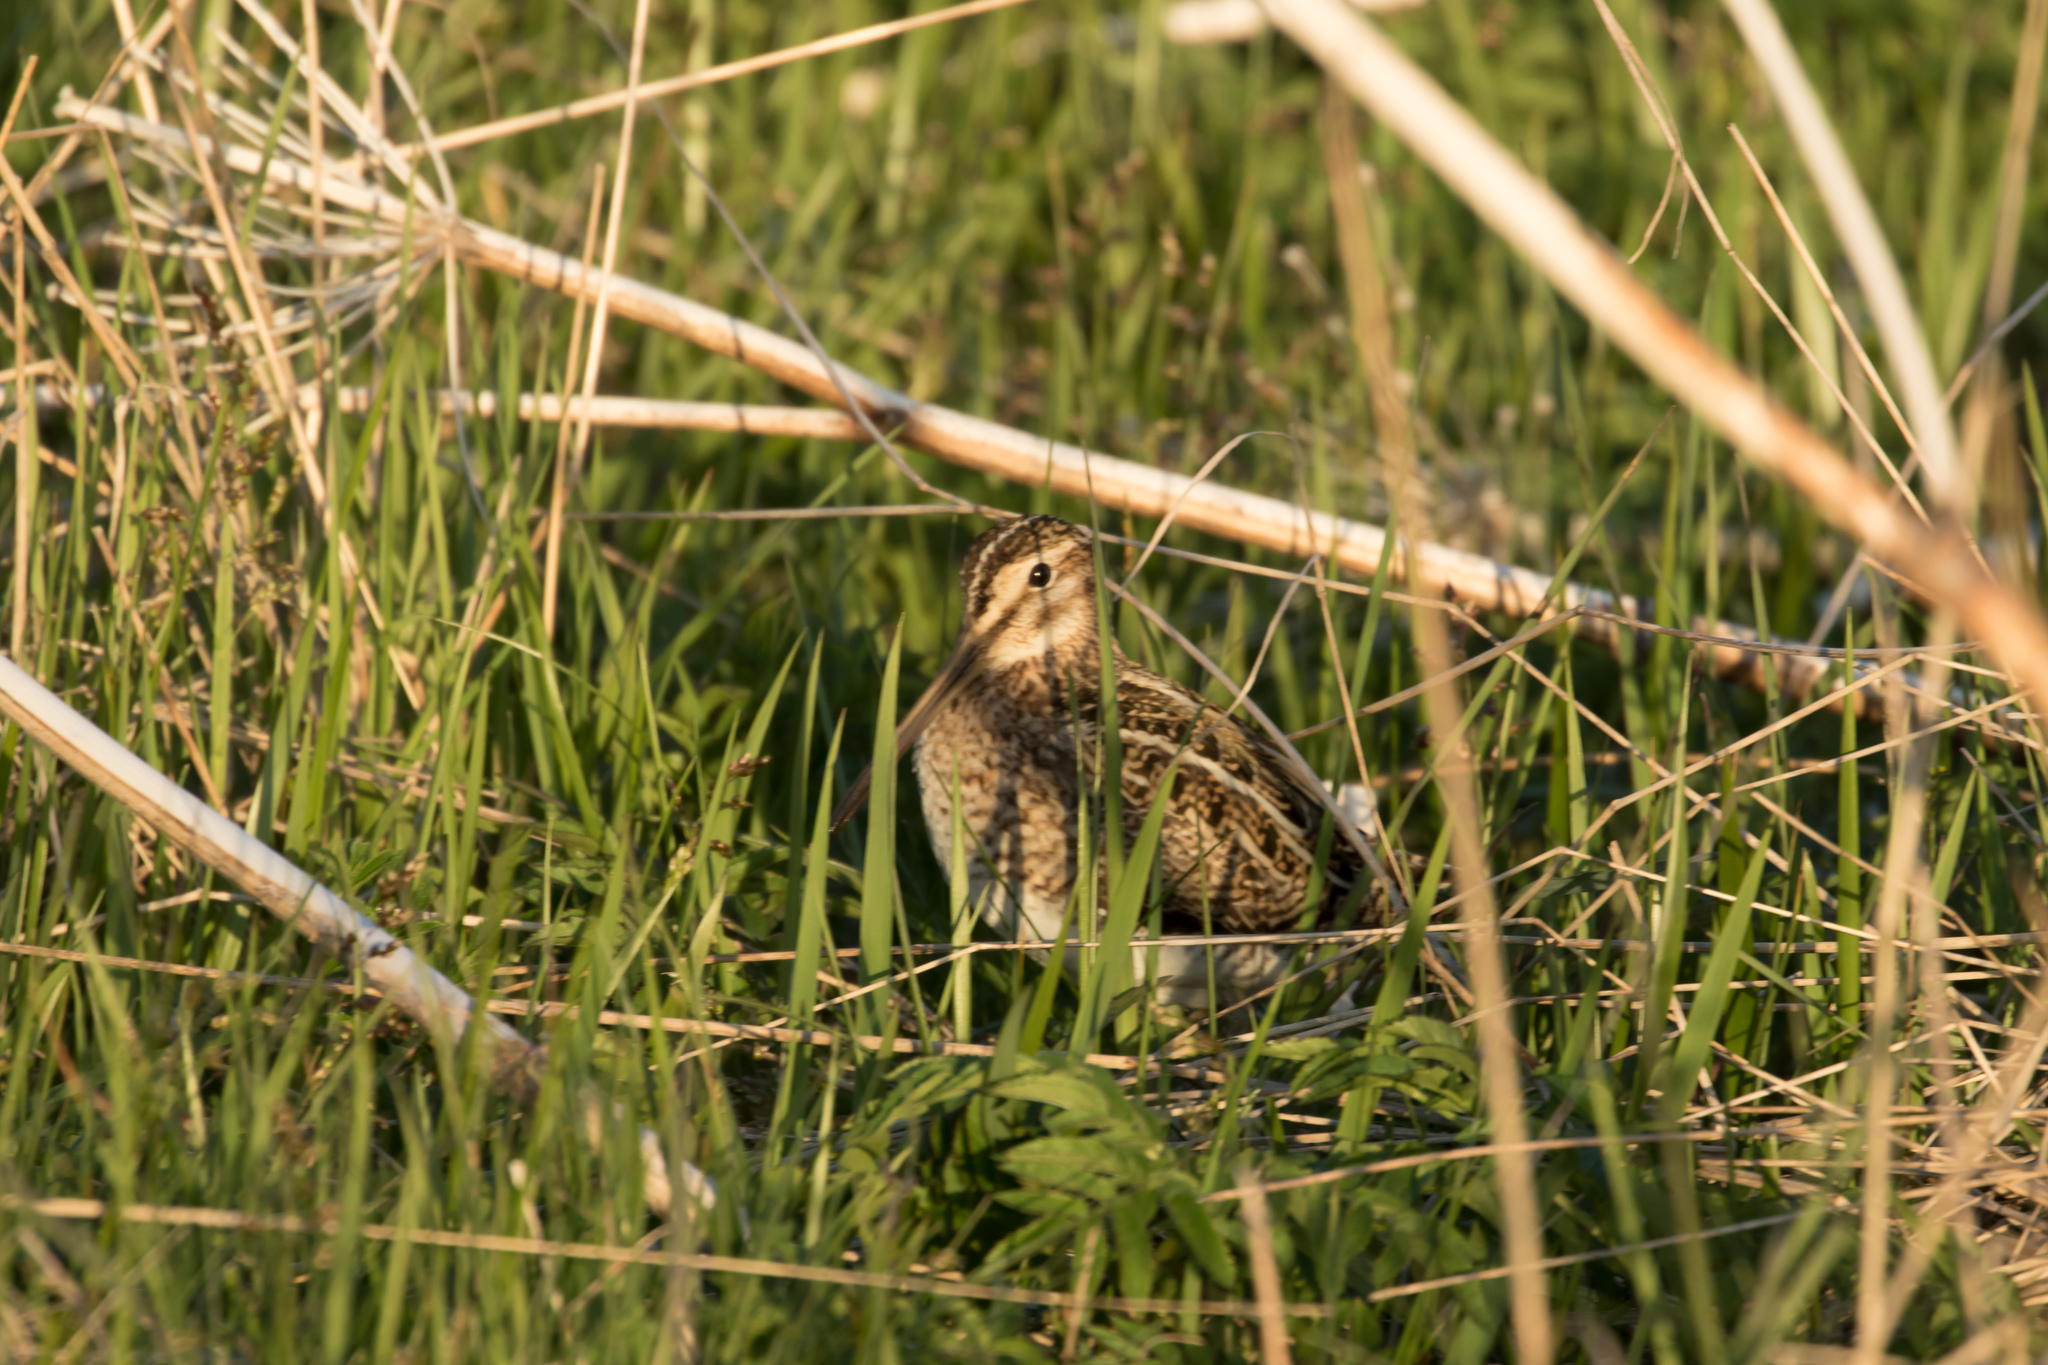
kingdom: Animalia
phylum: Chordata
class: Aves
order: Charadriiformes
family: Scolopacidae
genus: Gallinago
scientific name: Gallinago gallinago
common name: Common snipe
